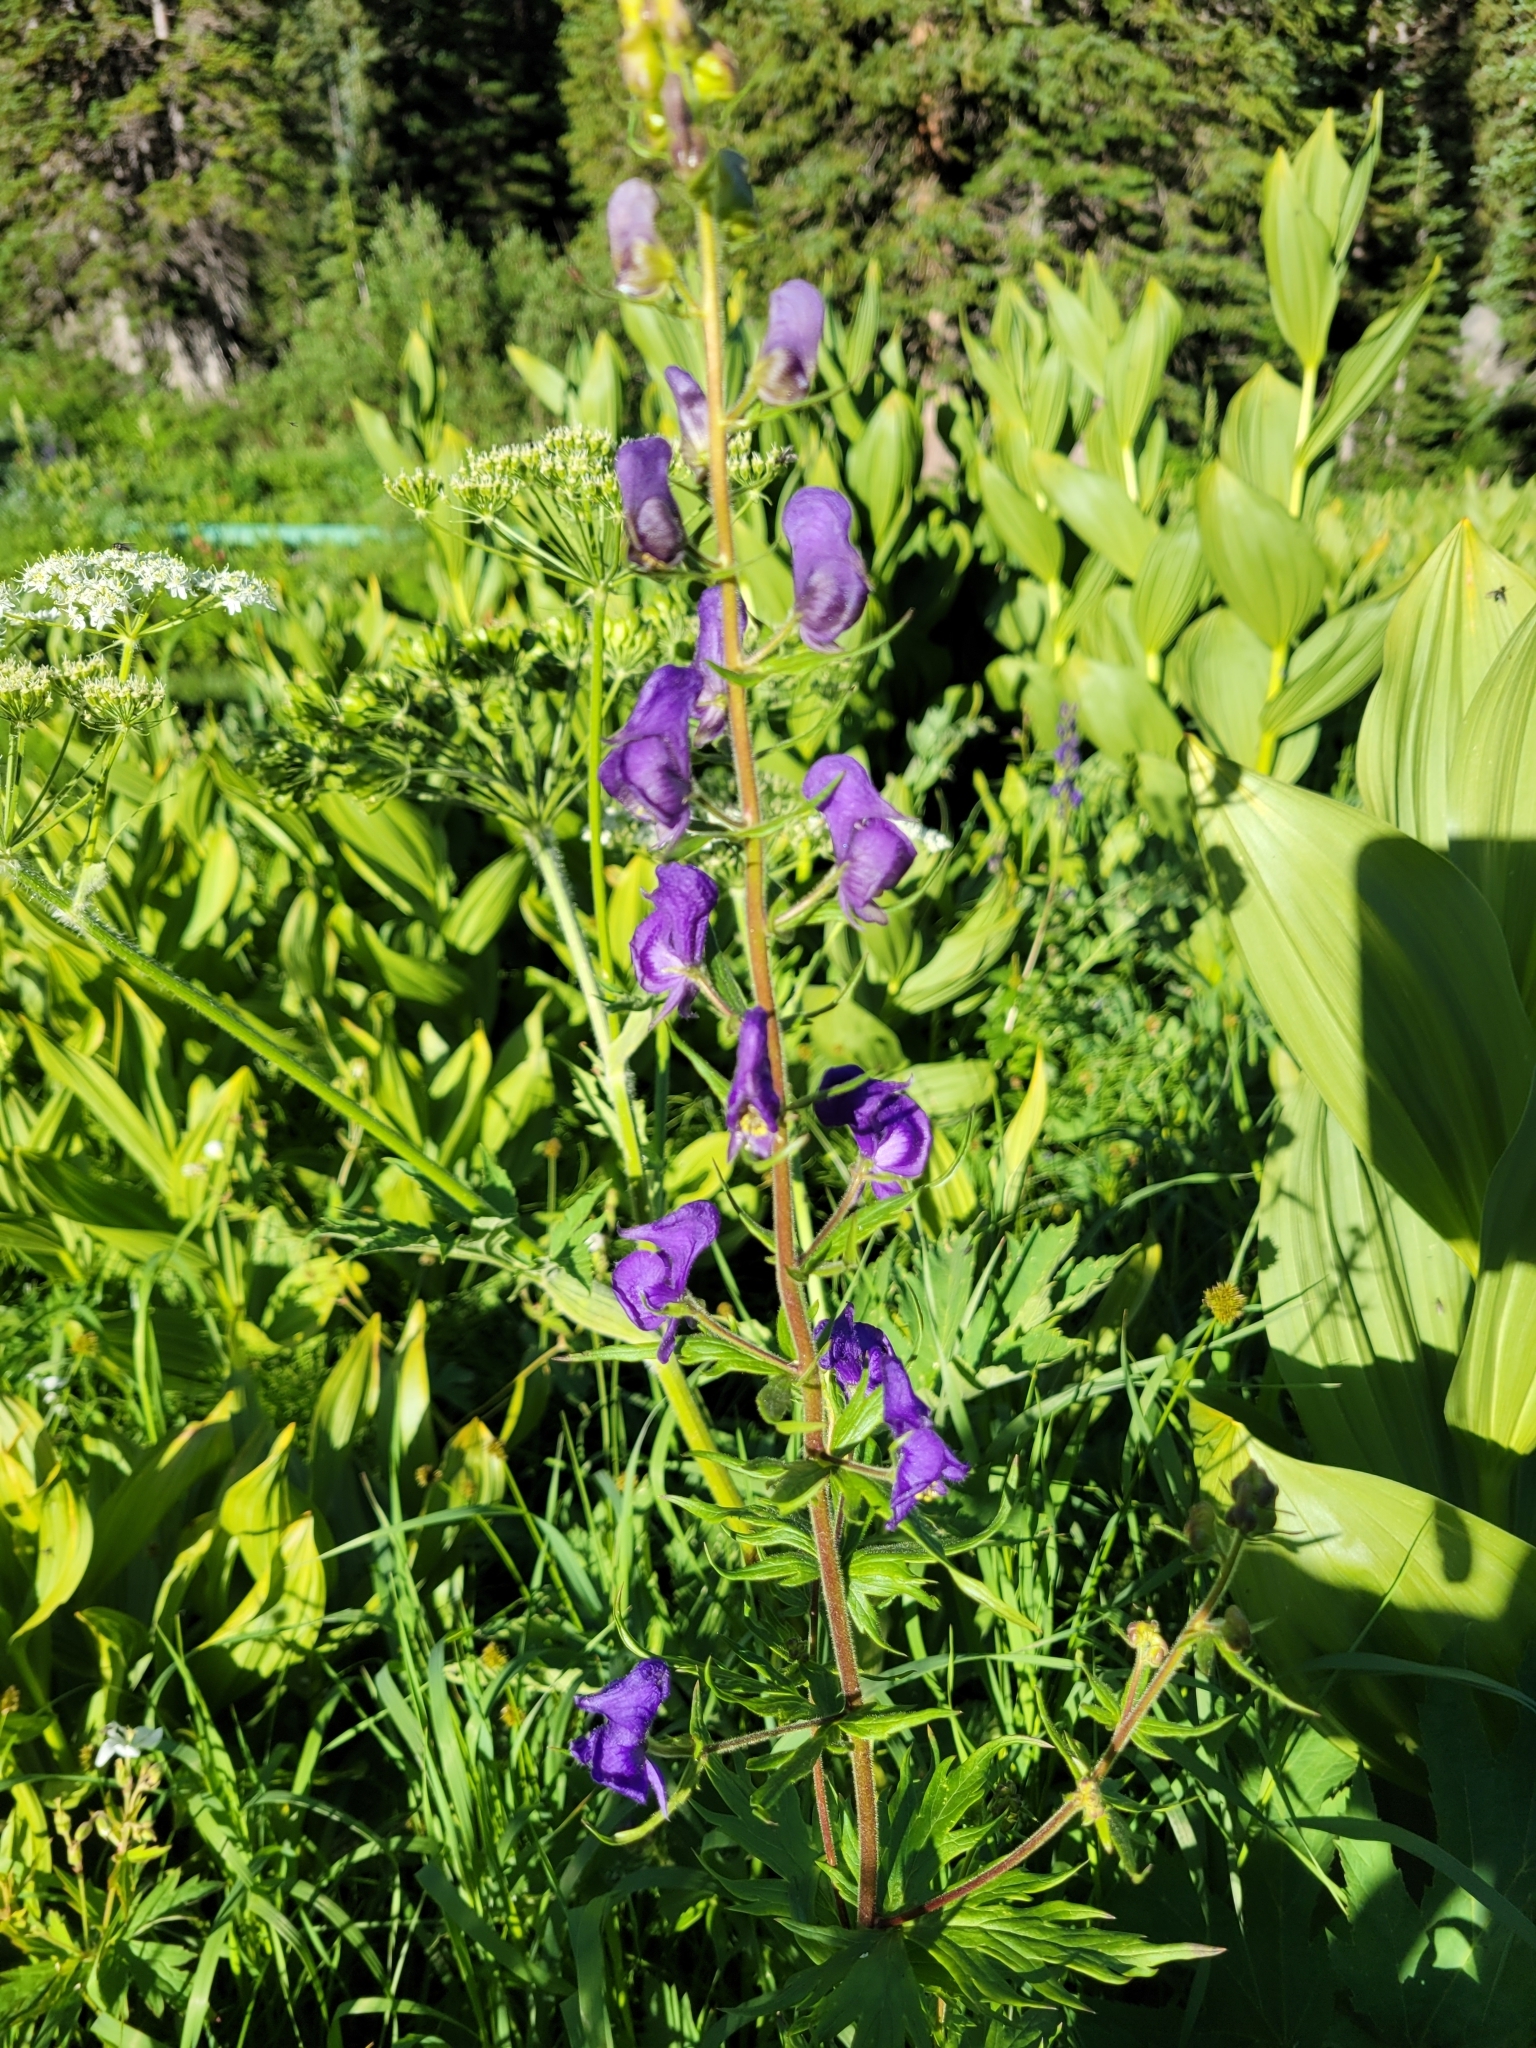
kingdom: Plantae
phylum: Tracheophyta
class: Magnoliopsida
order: Ranunculales
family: Ranunculaceae
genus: Aconitum
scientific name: Aconitum columbianum
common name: Columbia aconite
